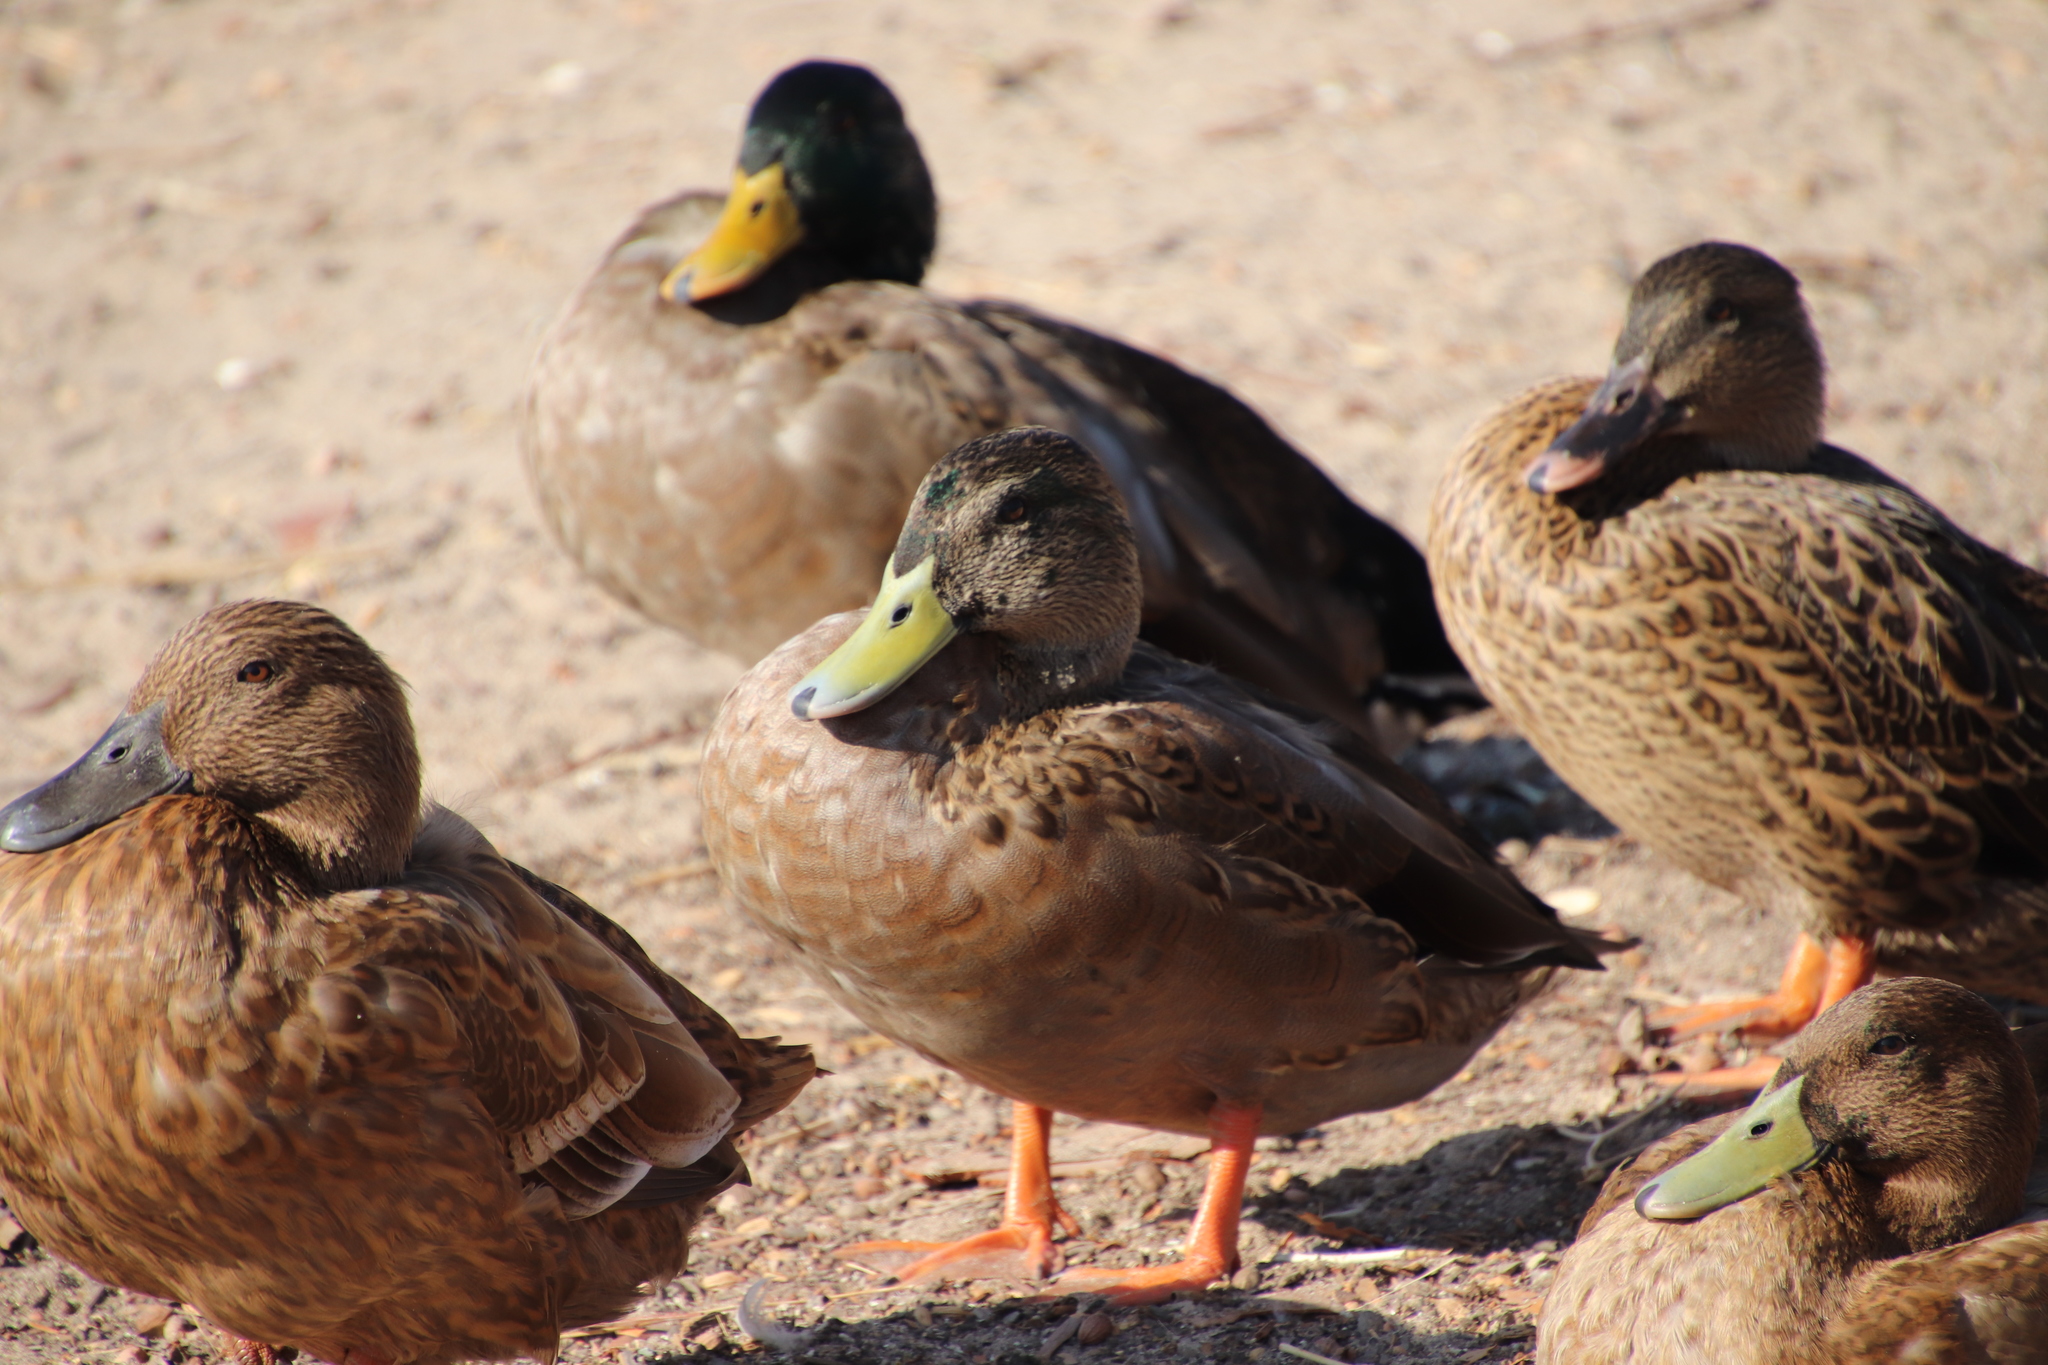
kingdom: Animalia
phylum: Chordata
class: Aves
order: Anseriformes
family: Anatidae
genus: Anas
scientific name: Anas platyrhynchos
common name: Mallard
